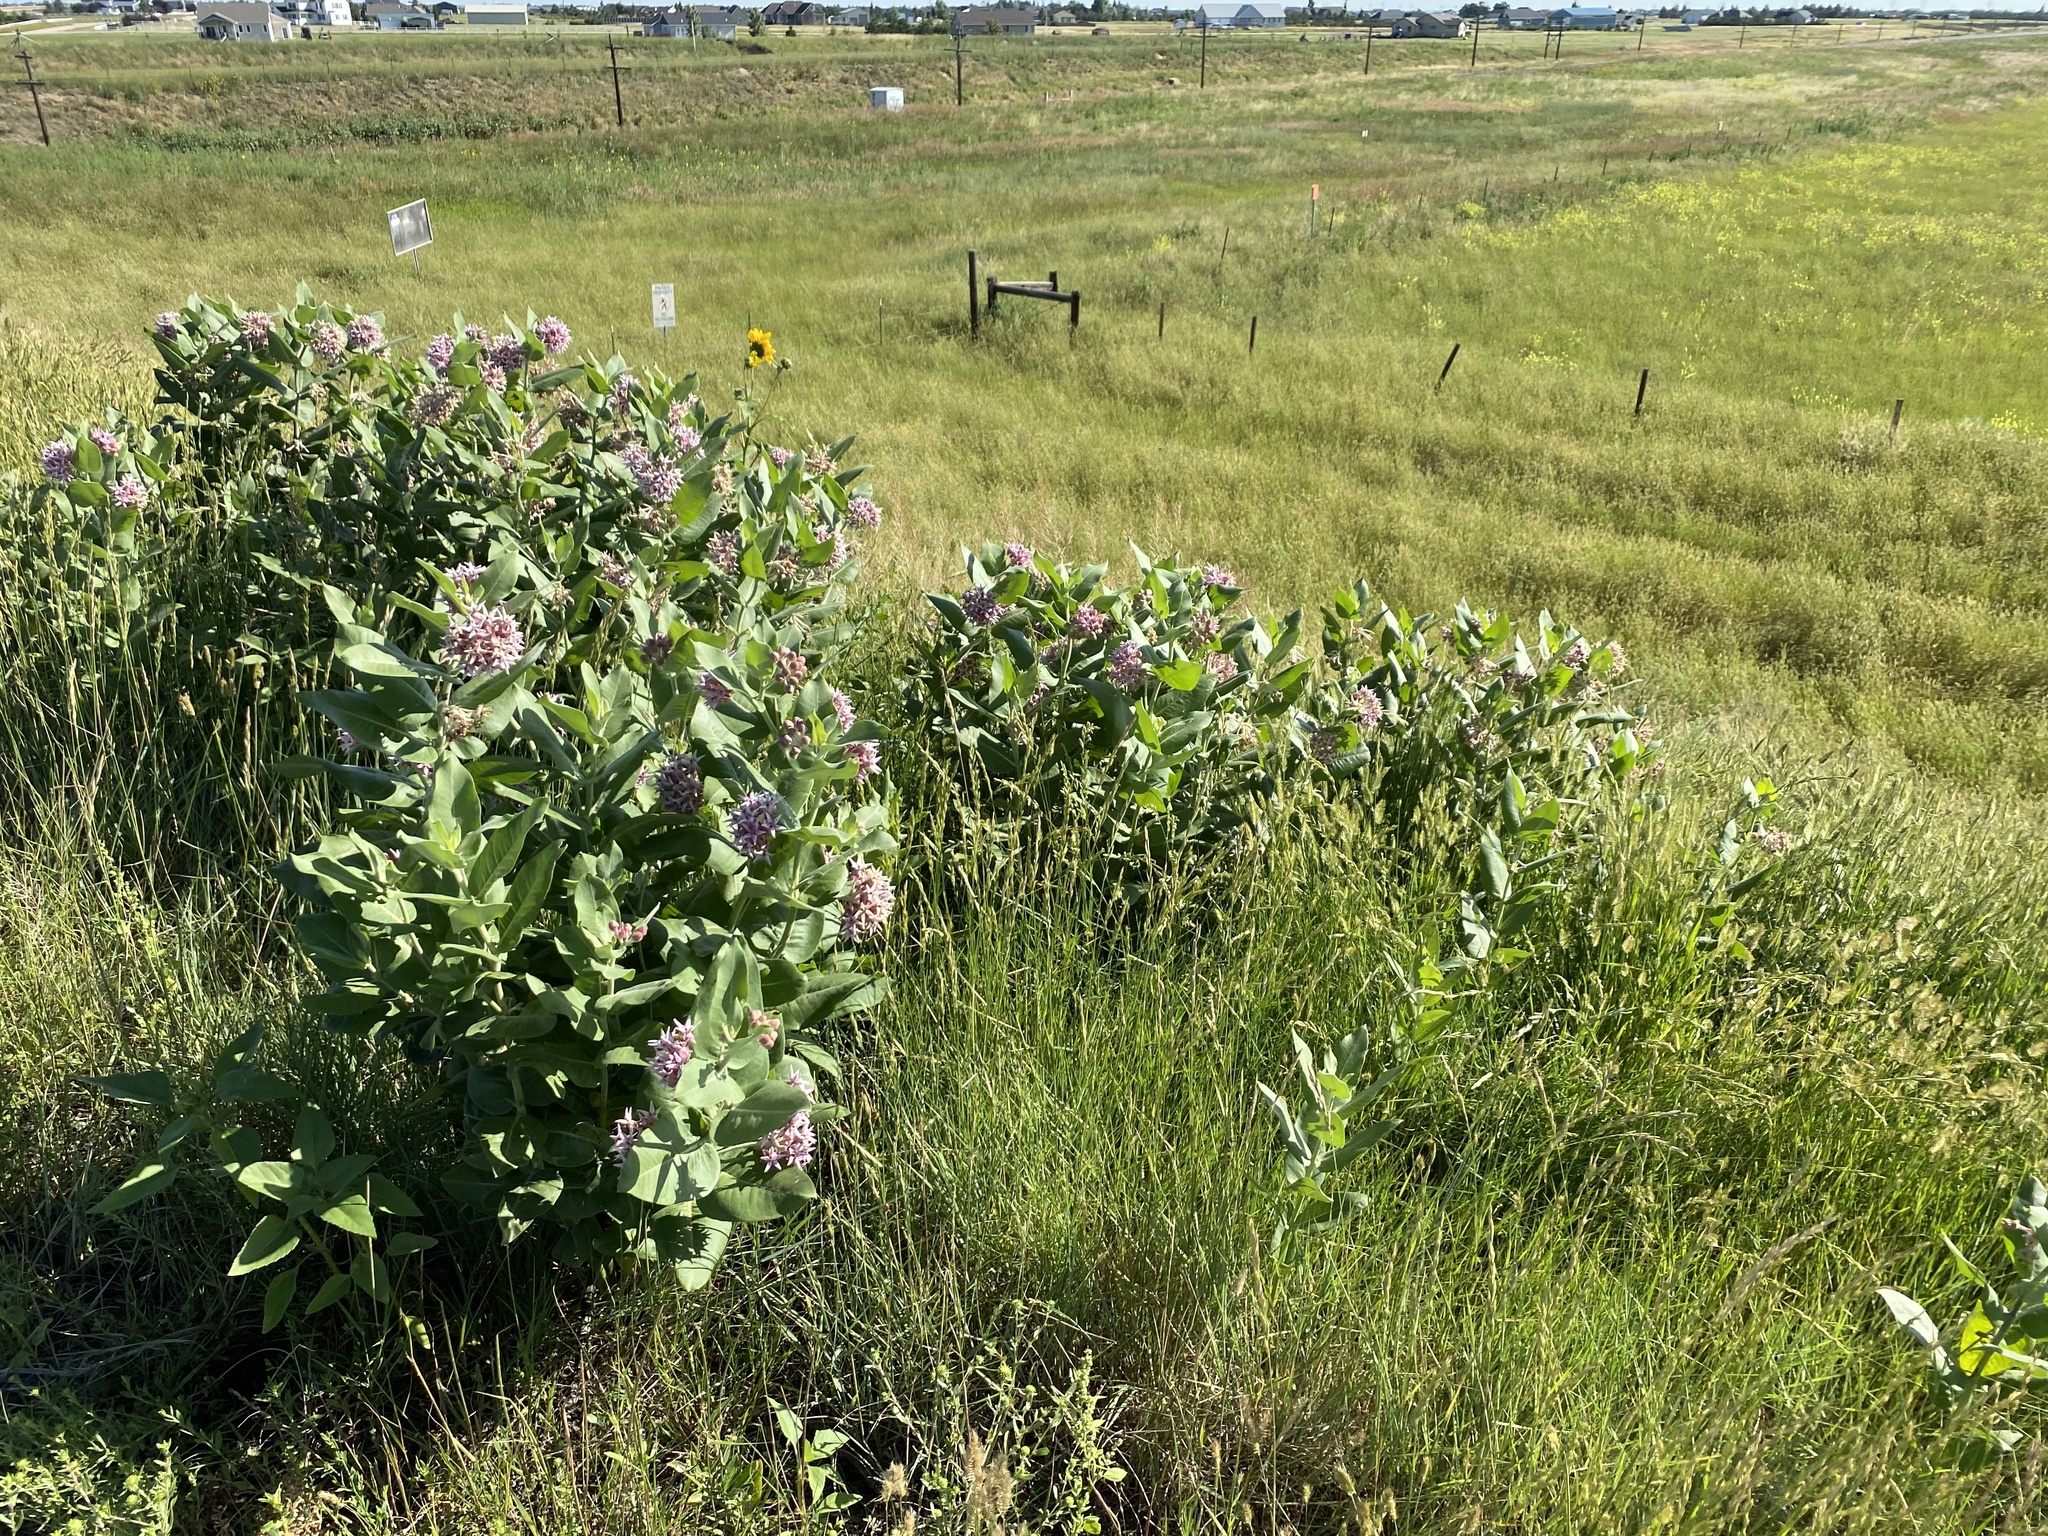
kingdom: Plantae
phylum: Tracheophyta
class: Magnoliopsida
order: Gentianales
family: Apocynaceae
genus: Asclepias
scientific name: Asclepias speciosa
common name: Showy milkweed
